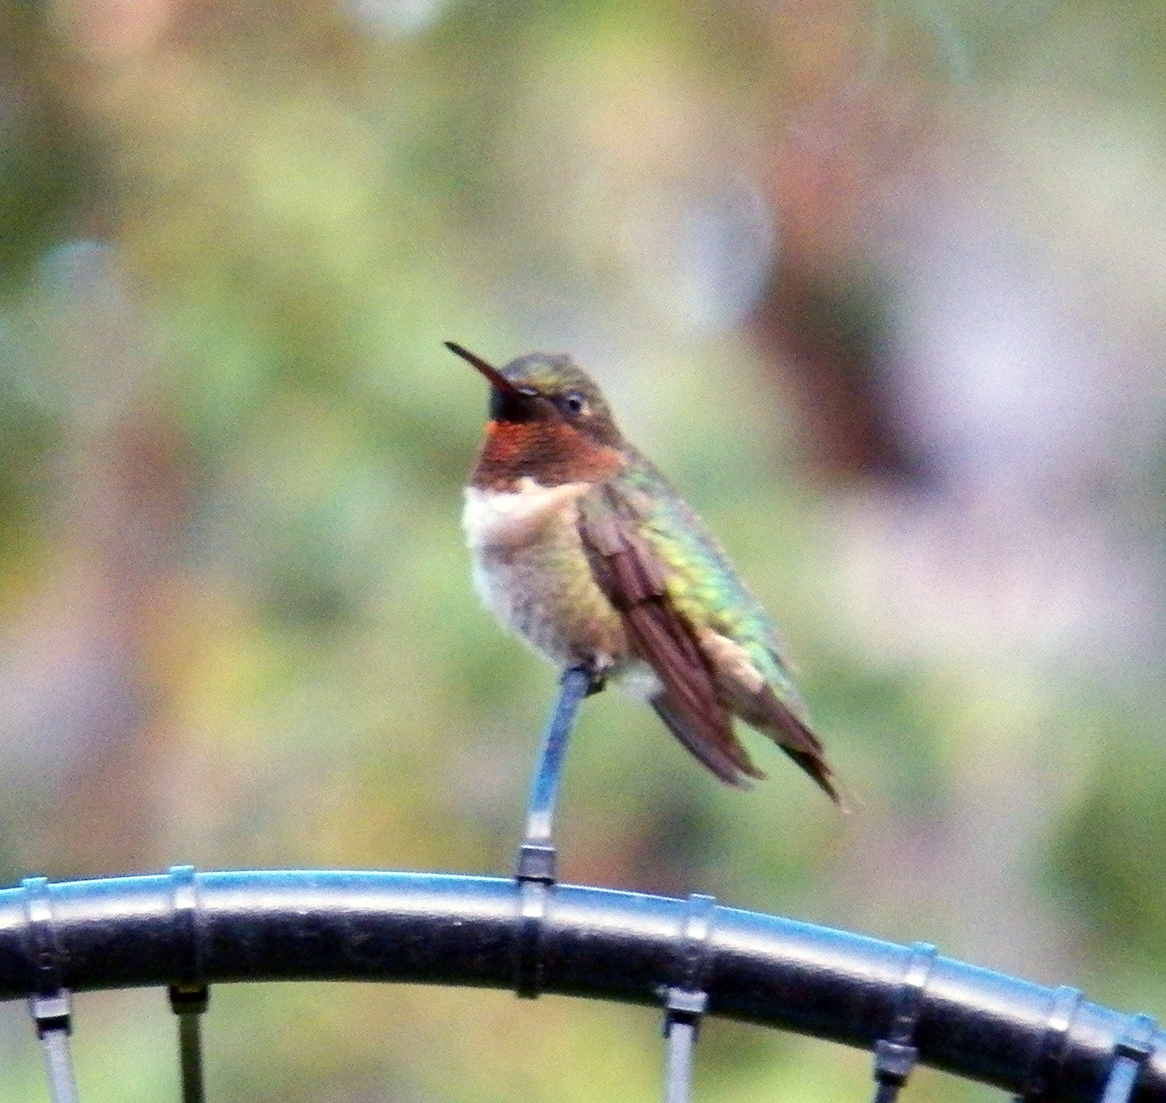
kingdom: Animalia
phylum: Chordata
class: Aves
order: Apodiformes
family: Trochilidae
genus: Archilochus
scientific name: Archilochus colubris
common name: Ruby-throated hummingbird
